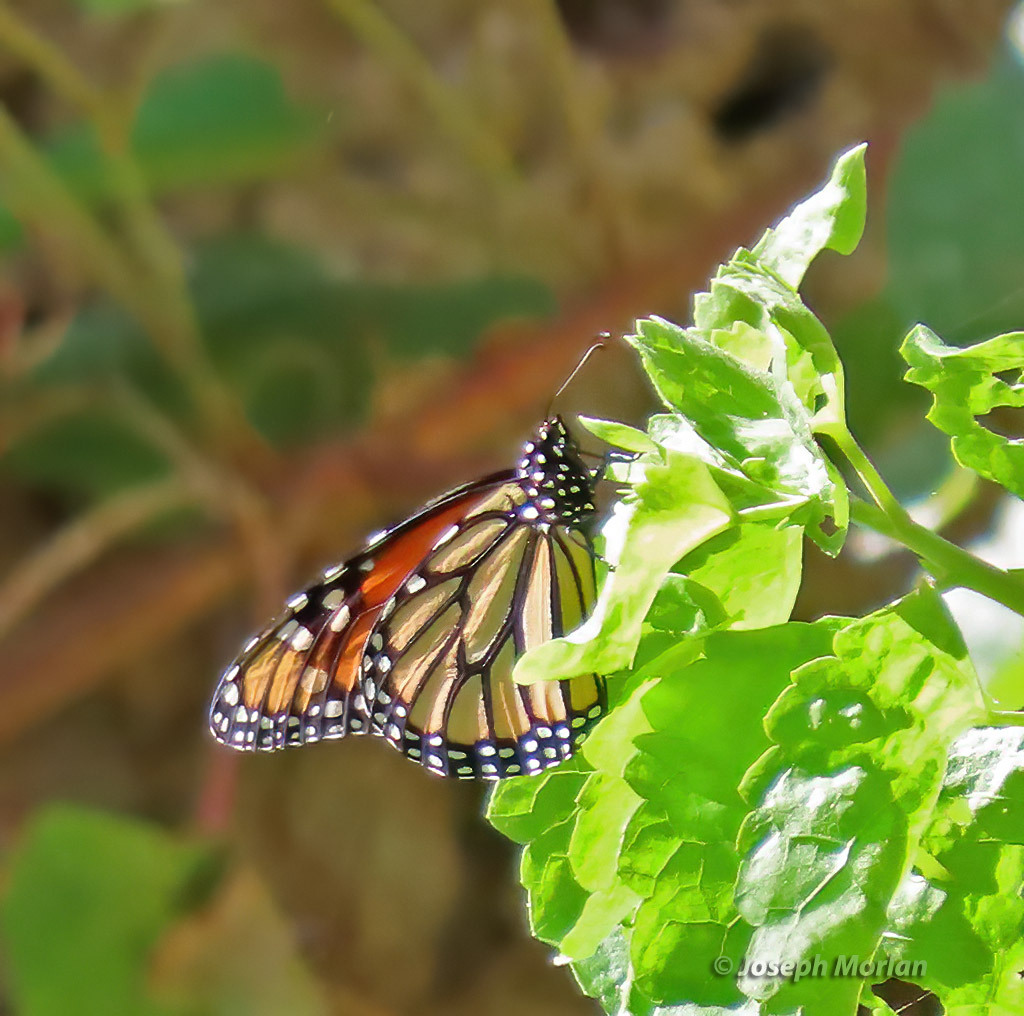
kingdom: Animalia
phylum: Arthropoda
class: Insecta
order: Lepidoptera
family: Nymphalidae
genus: Danaus
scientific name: Danaus plexippus
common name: Monarch
